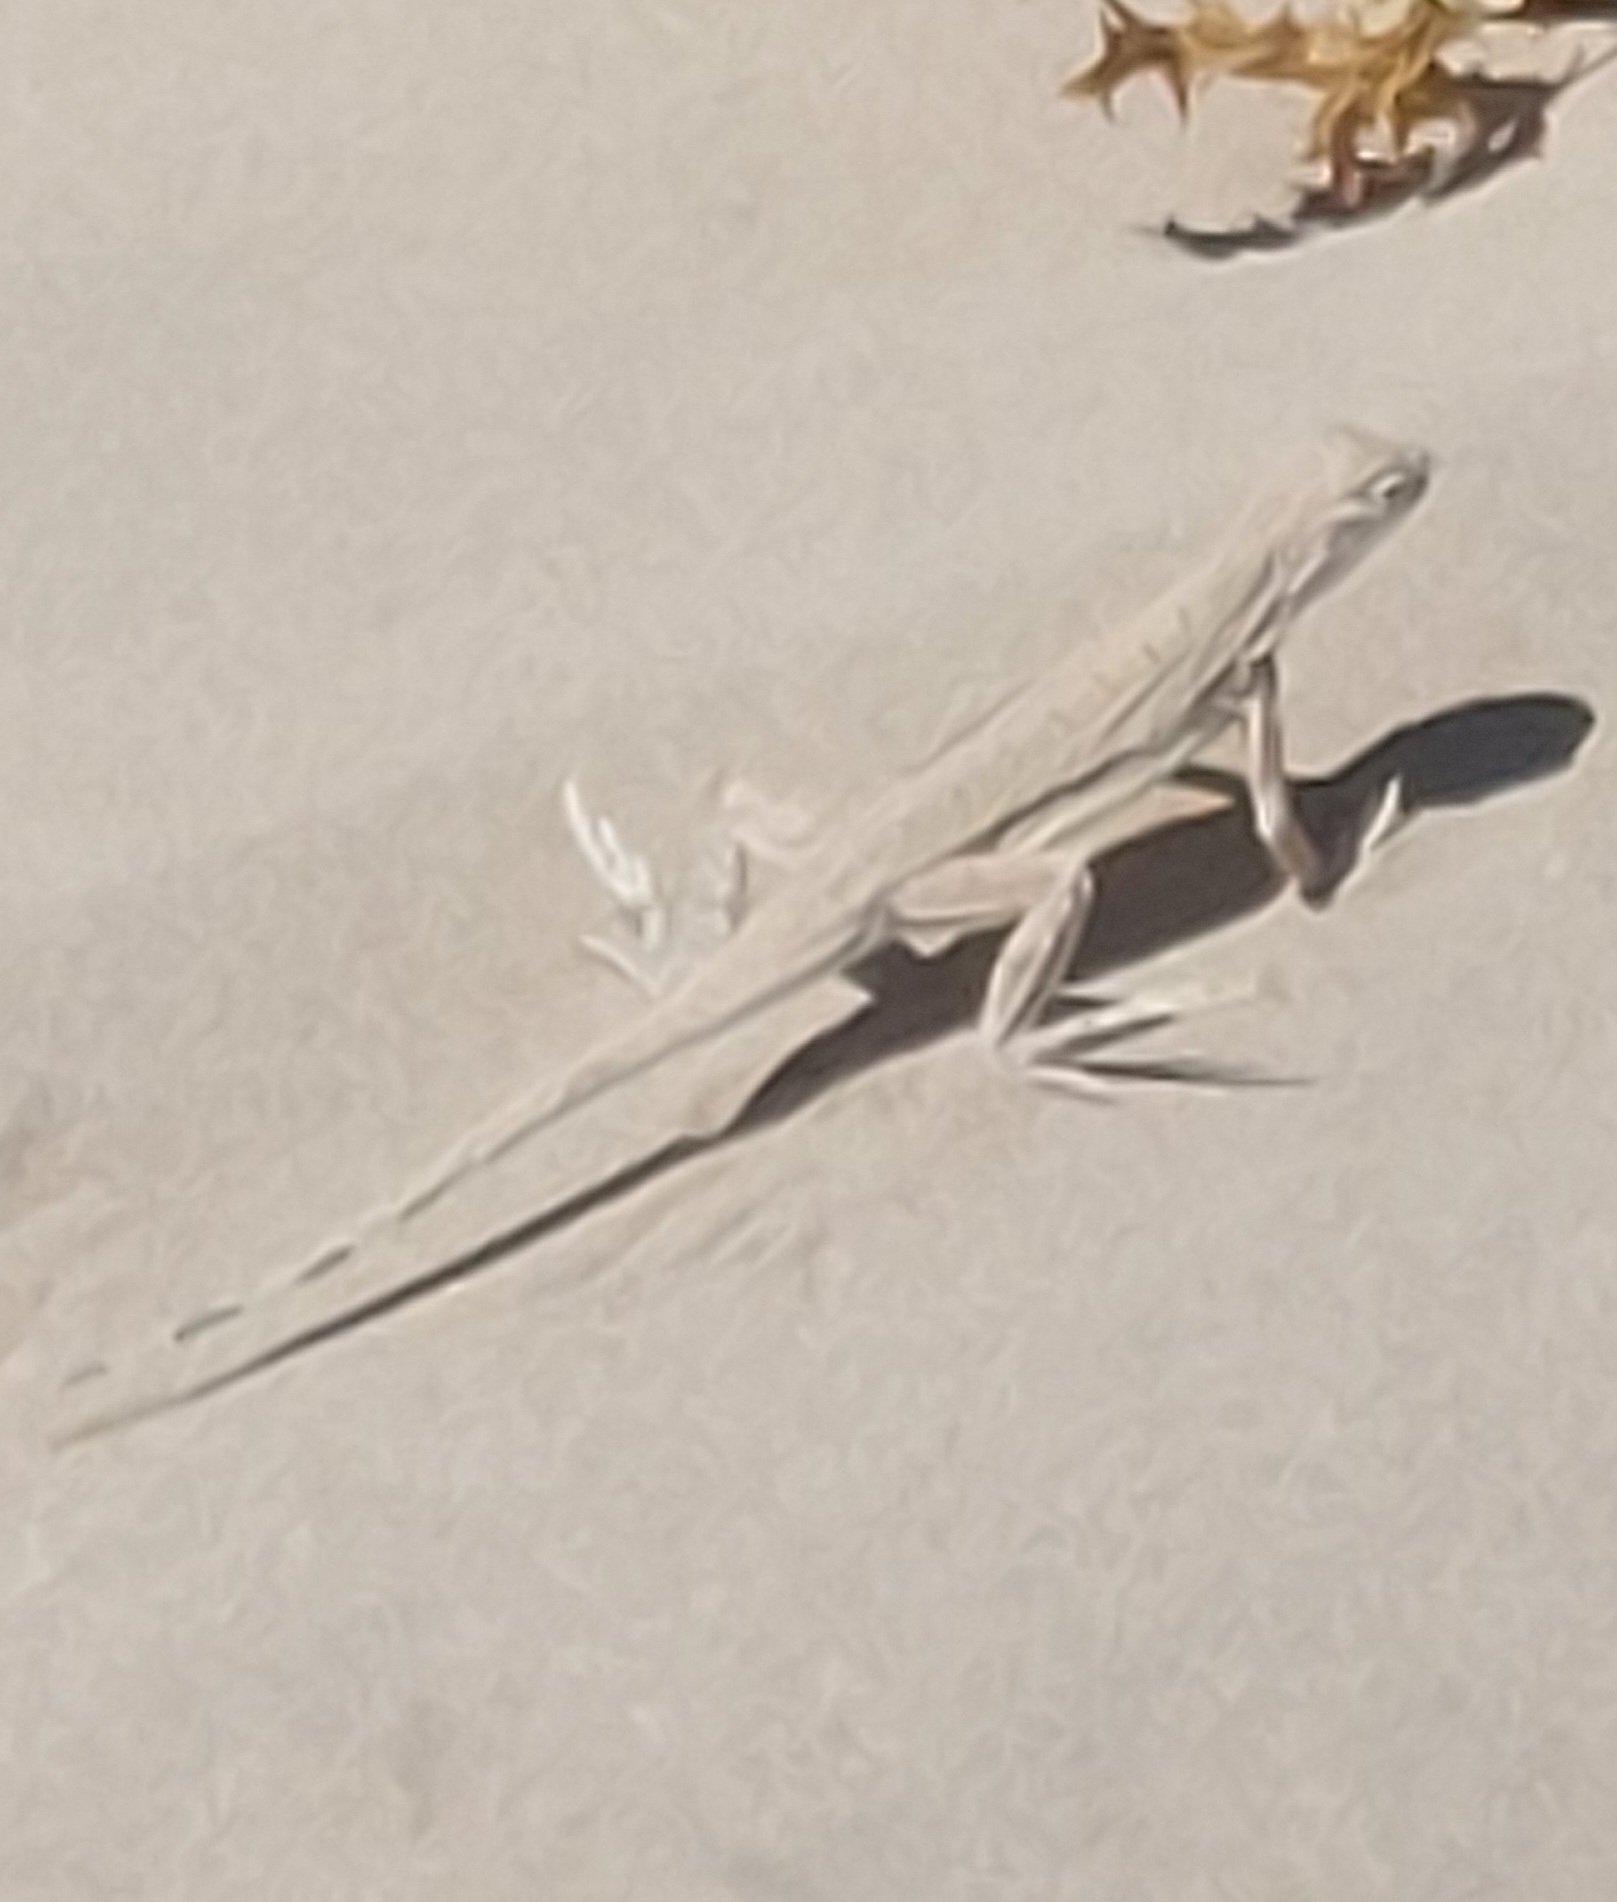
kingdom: Animalia
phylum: Chordata
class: Squamata
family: Phrynosomatidae
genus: Uma
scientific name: Uma exsul
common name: Fringe-toed sand lizard
